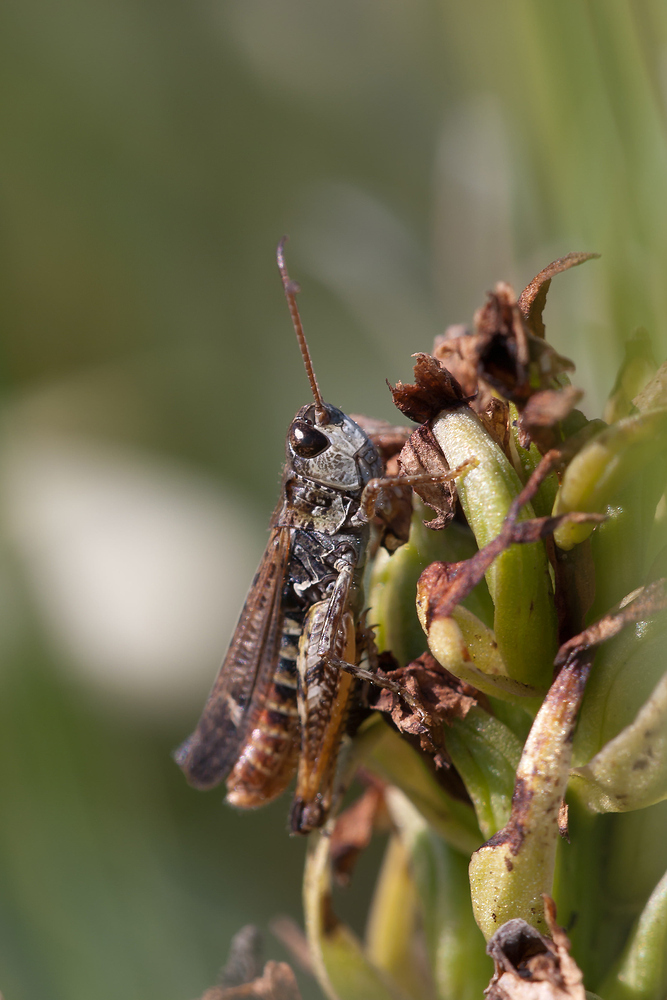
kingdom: Animalia
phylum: Arthropoda
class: Insecta
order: Orthoptera
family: Acrididae
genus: Myrmeleotettix
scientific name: Myrmeleotettix maculatus
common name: Mottled grasshopper
